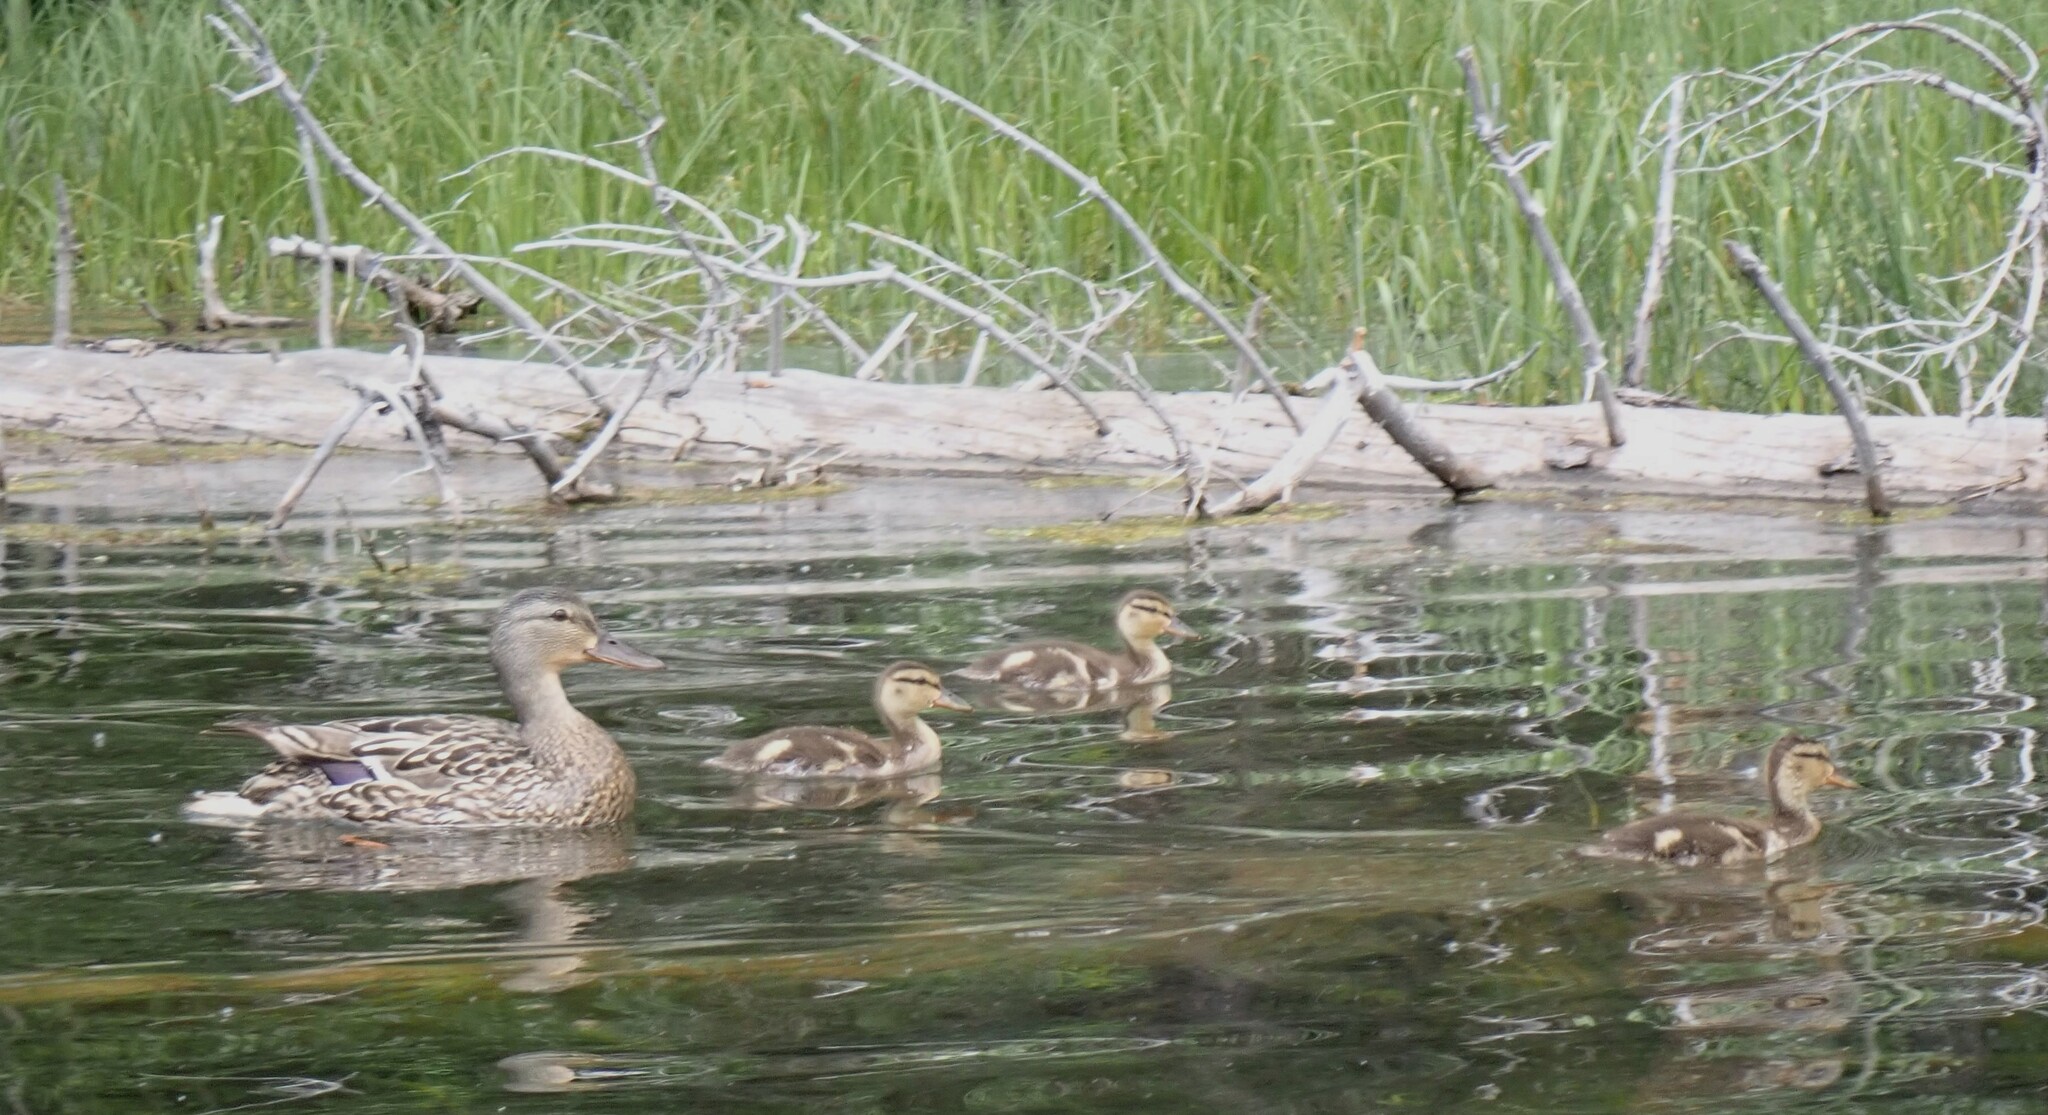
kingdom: Animalia
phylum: Chordata
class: Aves
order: Anseriformes
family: Anatidae
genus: Anas
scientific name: Anas platyrhynchos
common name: Mallard
